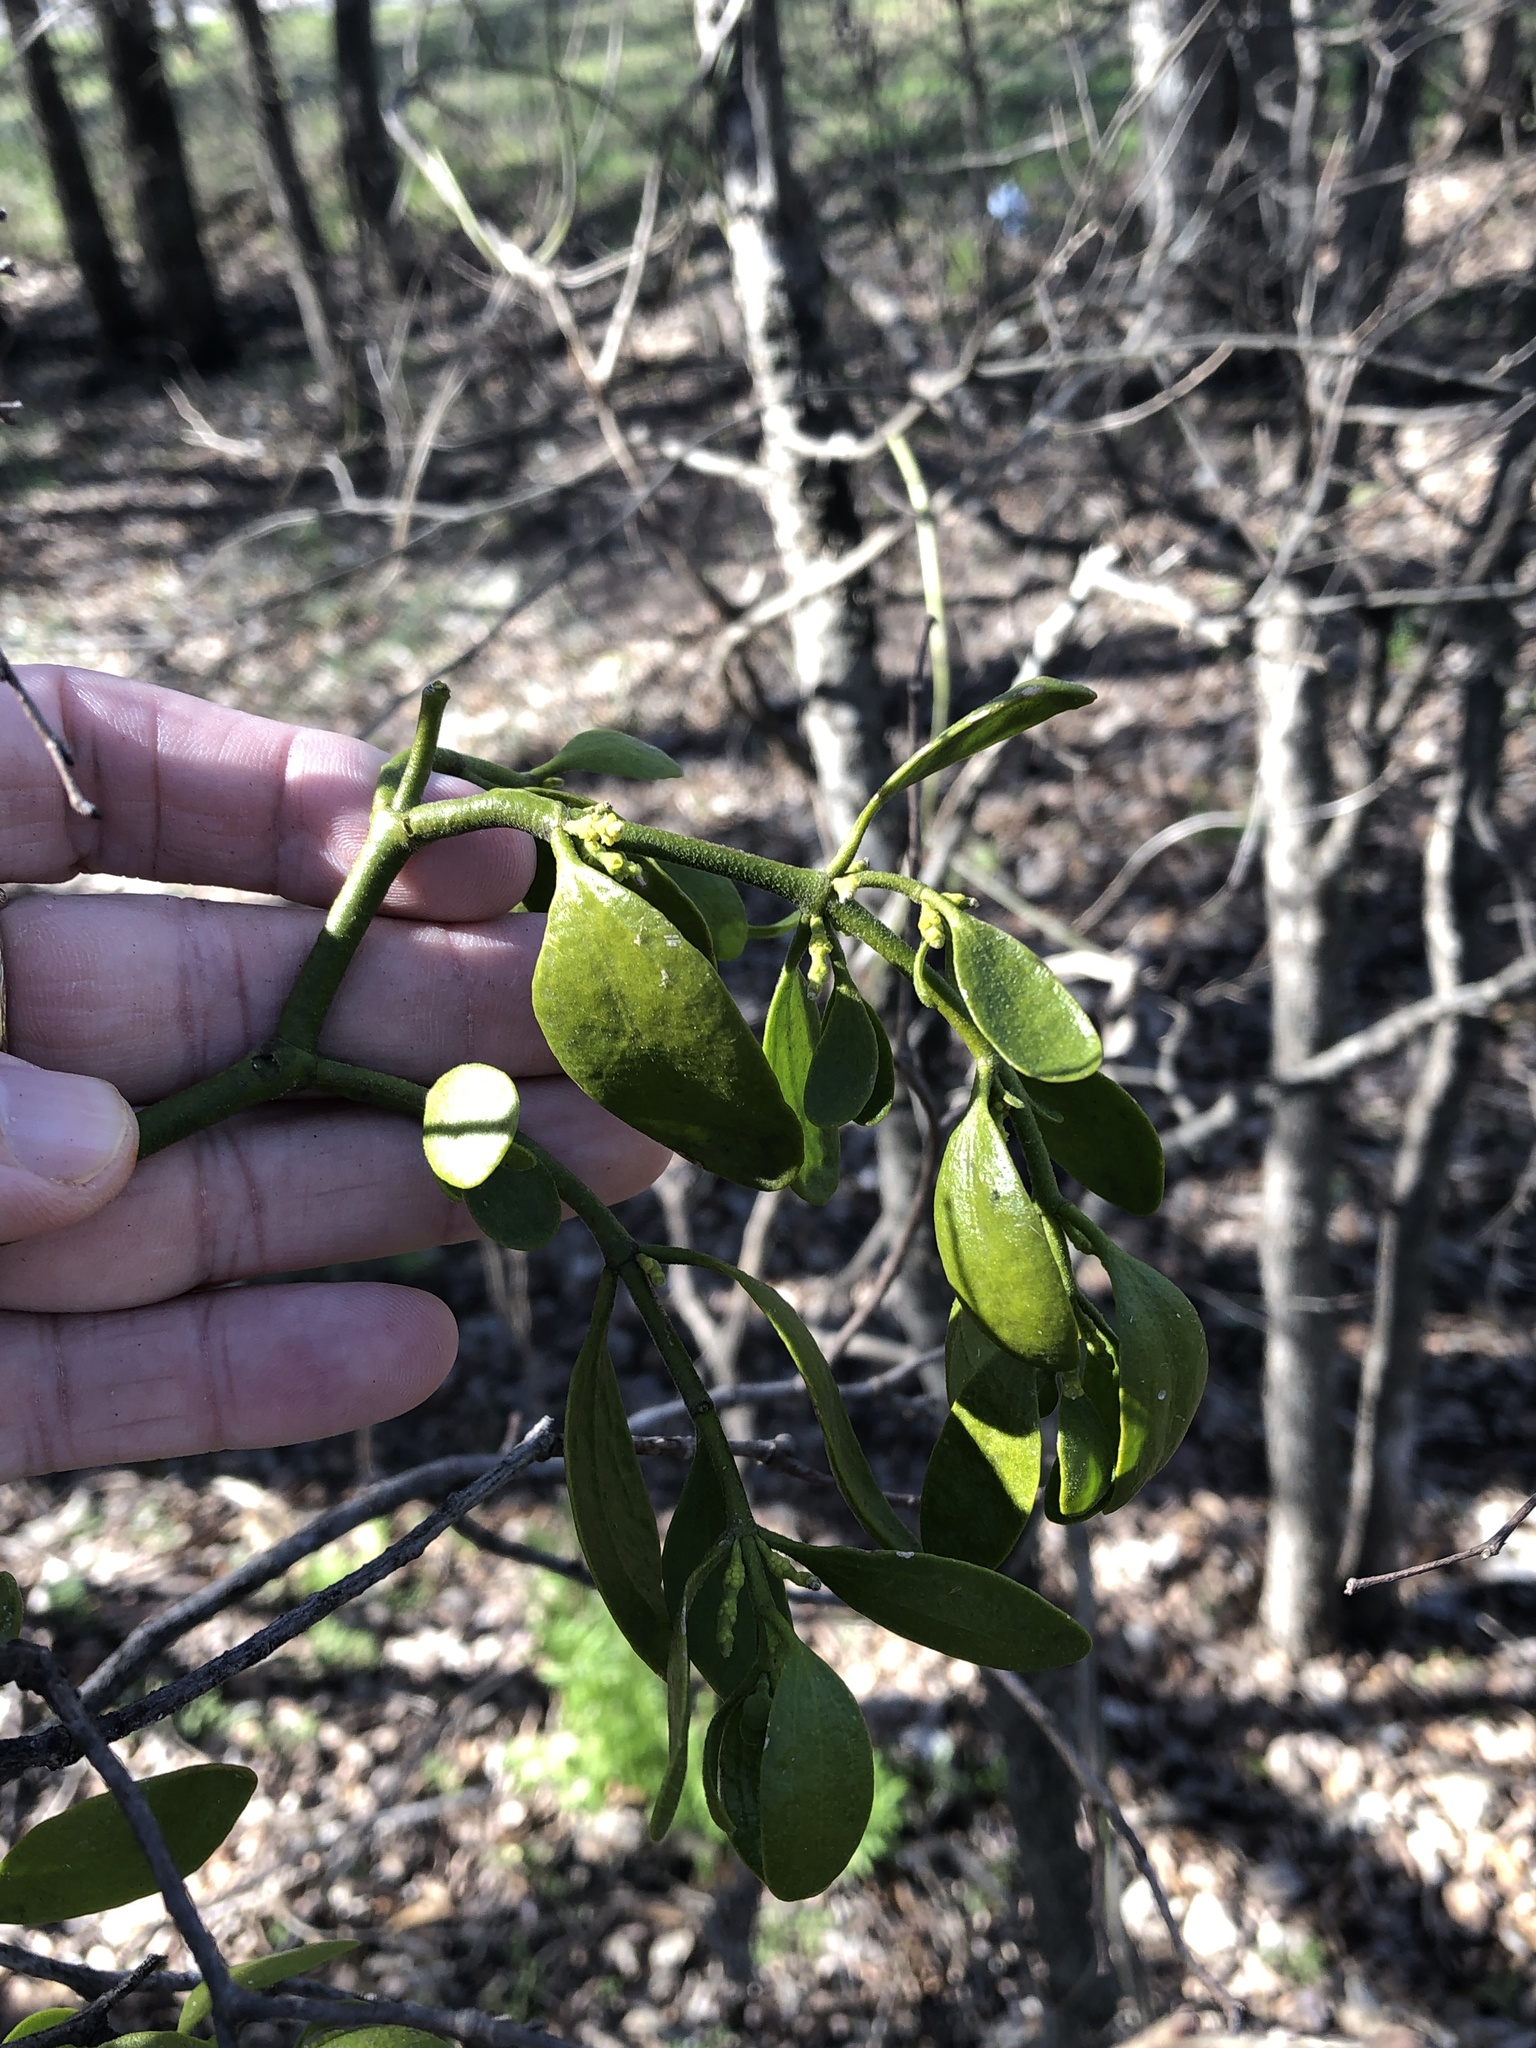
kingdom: Plantae
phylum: Tracheophyta
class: Magnoliopsida
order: Santalales
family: Viscaceae
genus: Phoradendron
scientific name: Phoradendron leucarpum
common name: Pacific mistletoe
